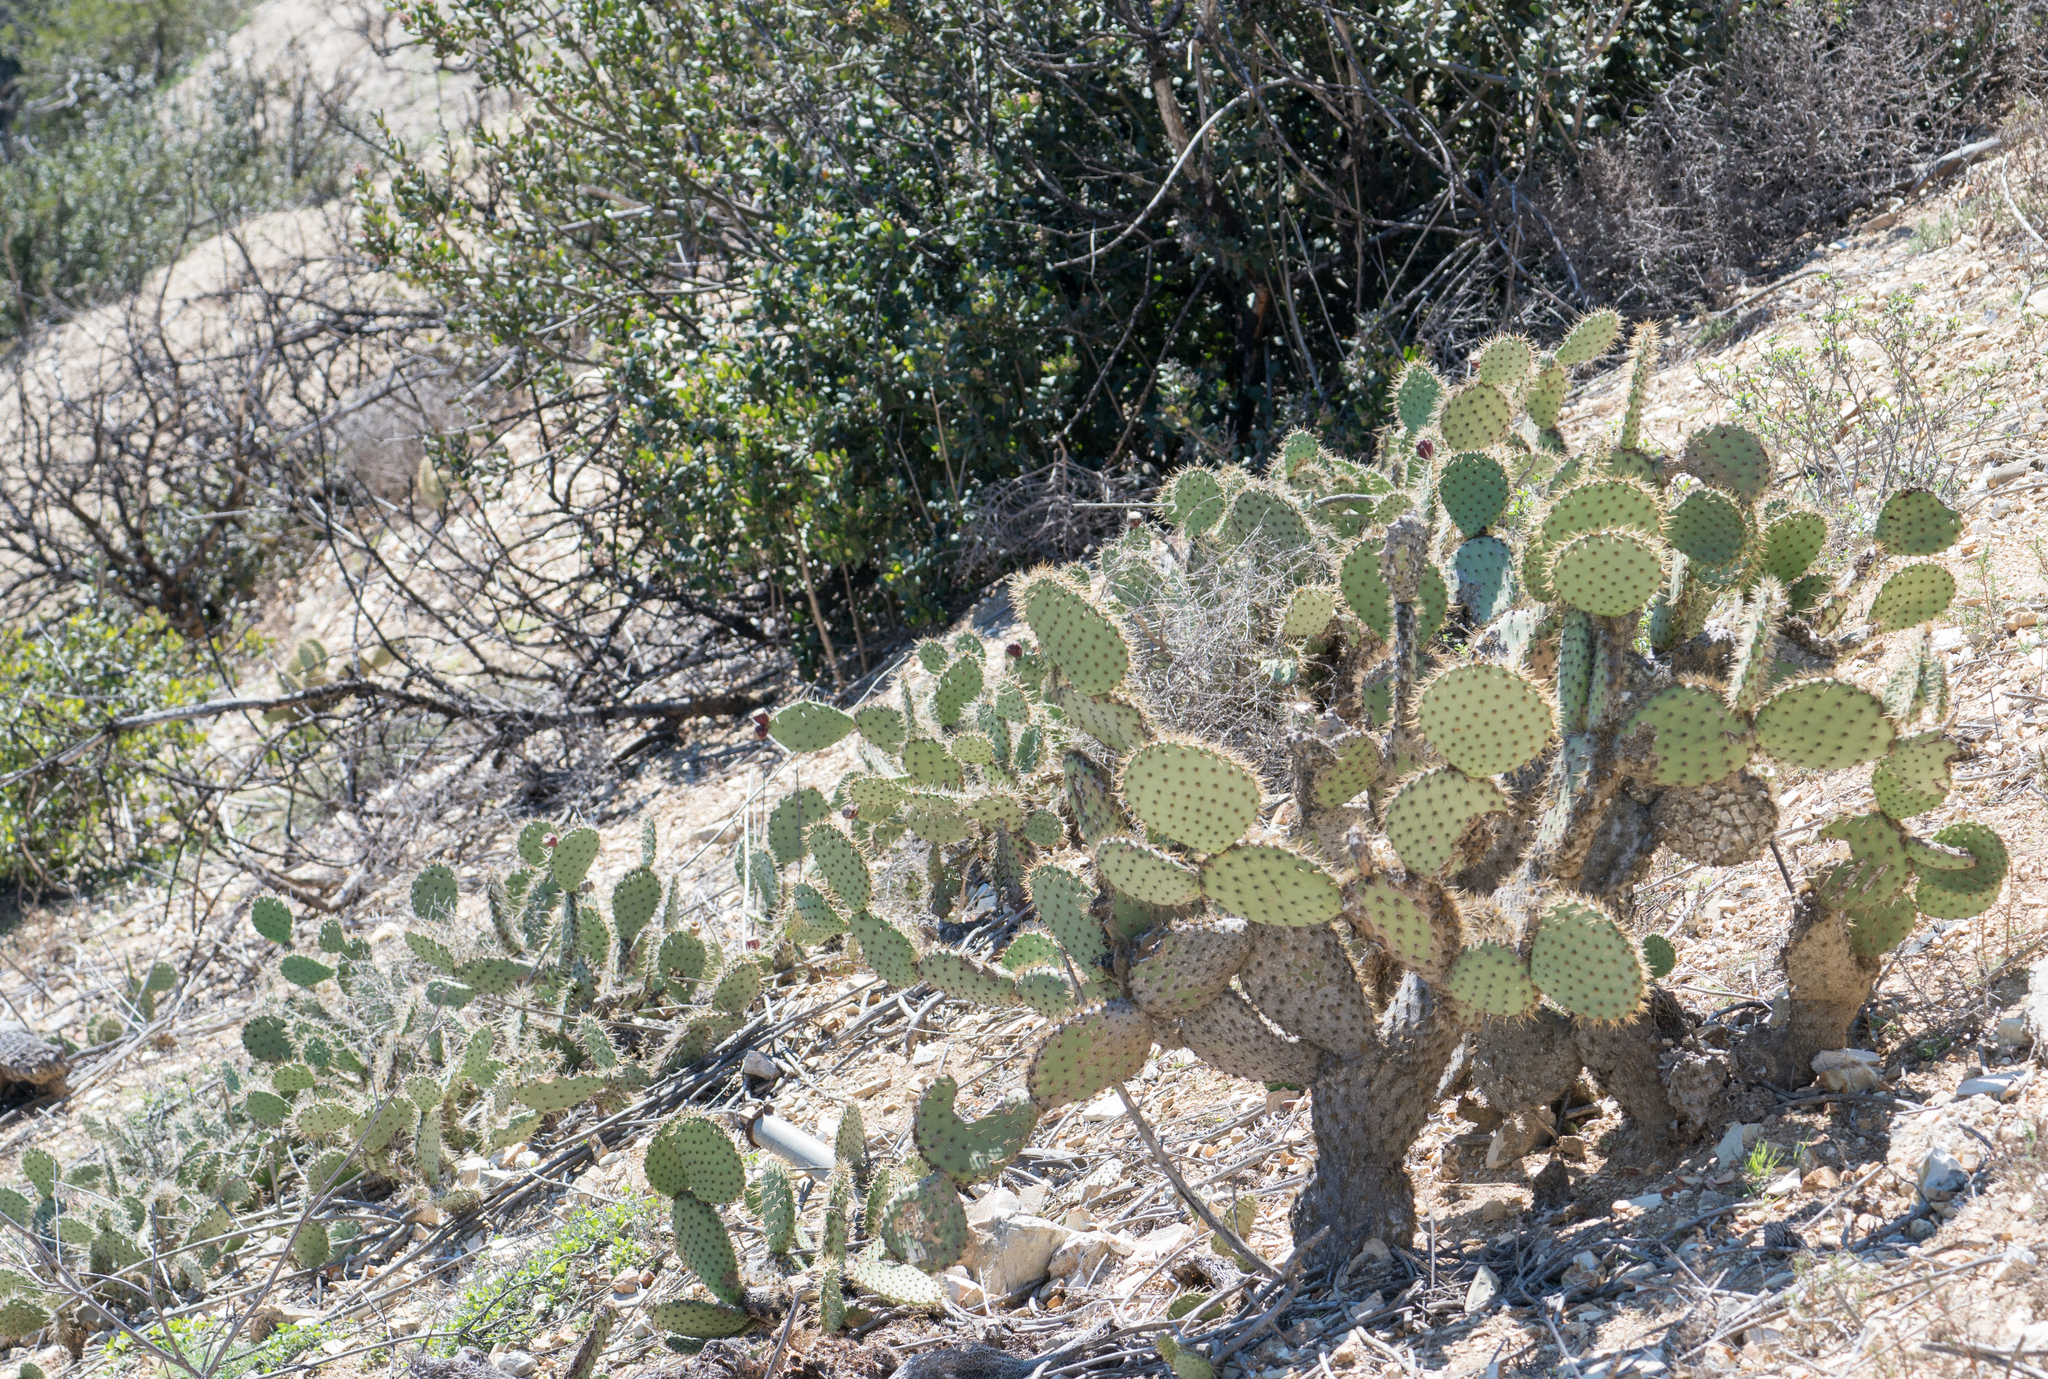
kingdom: Plantae
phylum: Tracheophyta
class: Magnoliopsida
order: Caryophyllales
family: Cactaceae
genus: Opuntia
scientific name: Opuntia oricola
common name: Chaparral prickly-pear
